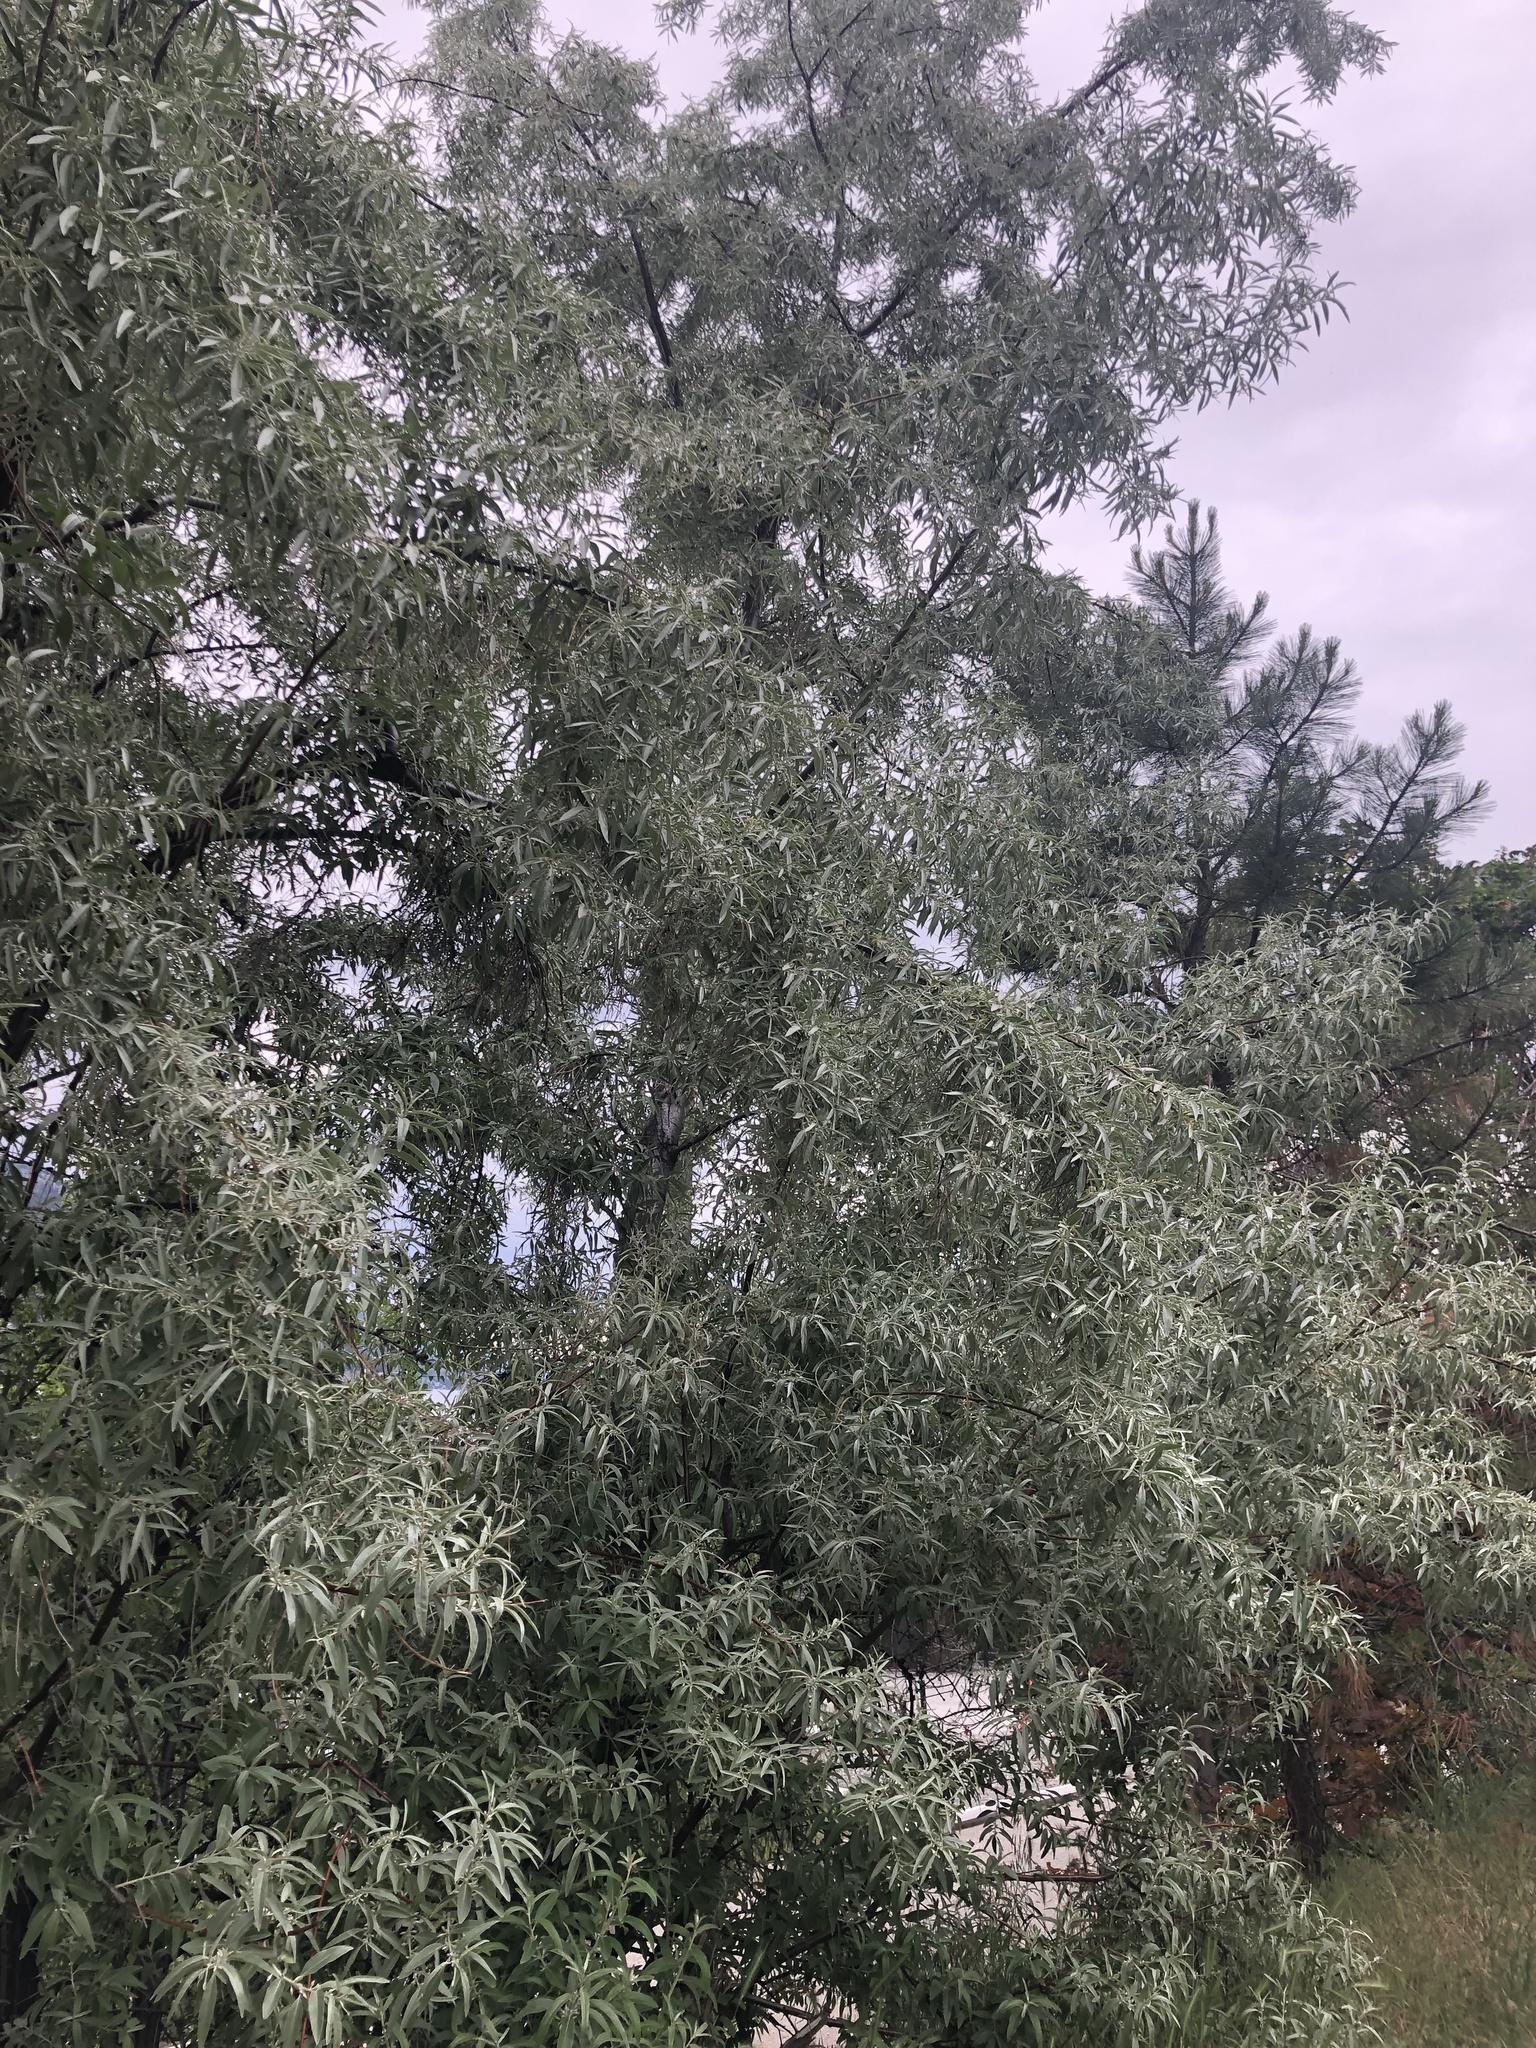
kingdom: Plantae
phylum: Tracheophyta
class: Magnoliopsida
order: Rosales
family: Elaeagnaceae
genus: Elaeagnus
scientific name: Elaeagnus angustifolia
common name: Russian olive
